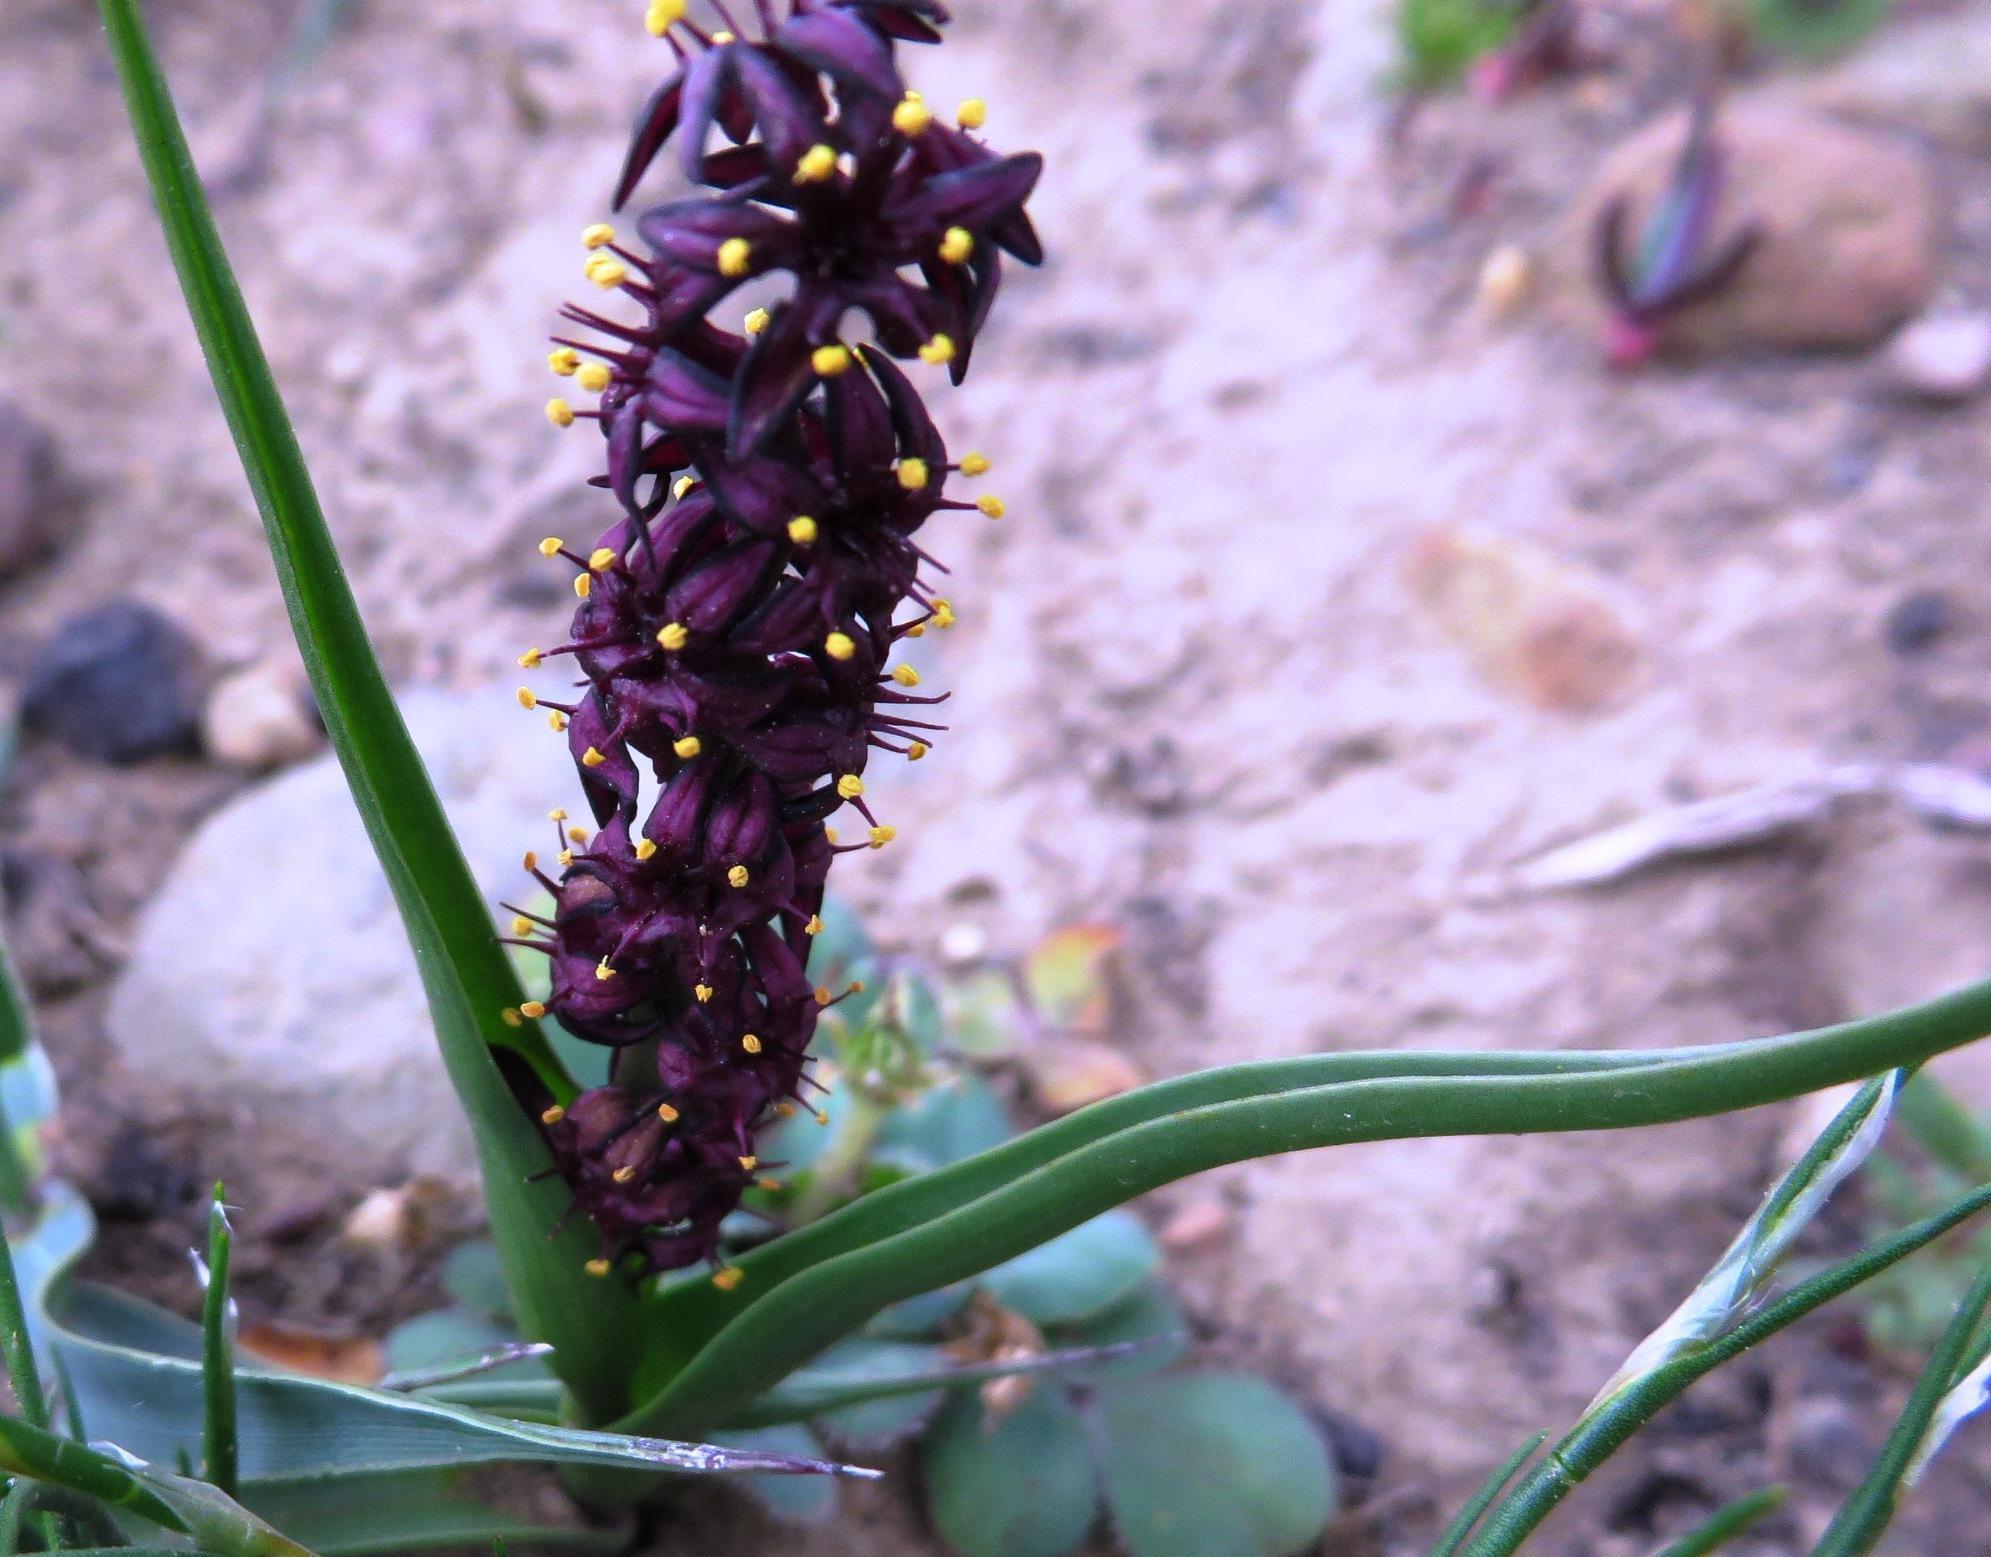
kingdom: Plantae
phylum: Tracheophyta
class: Liliopsida
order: Liliales
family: Colchicaceae
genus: Wurmbea
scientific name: Wurmbea recurva
